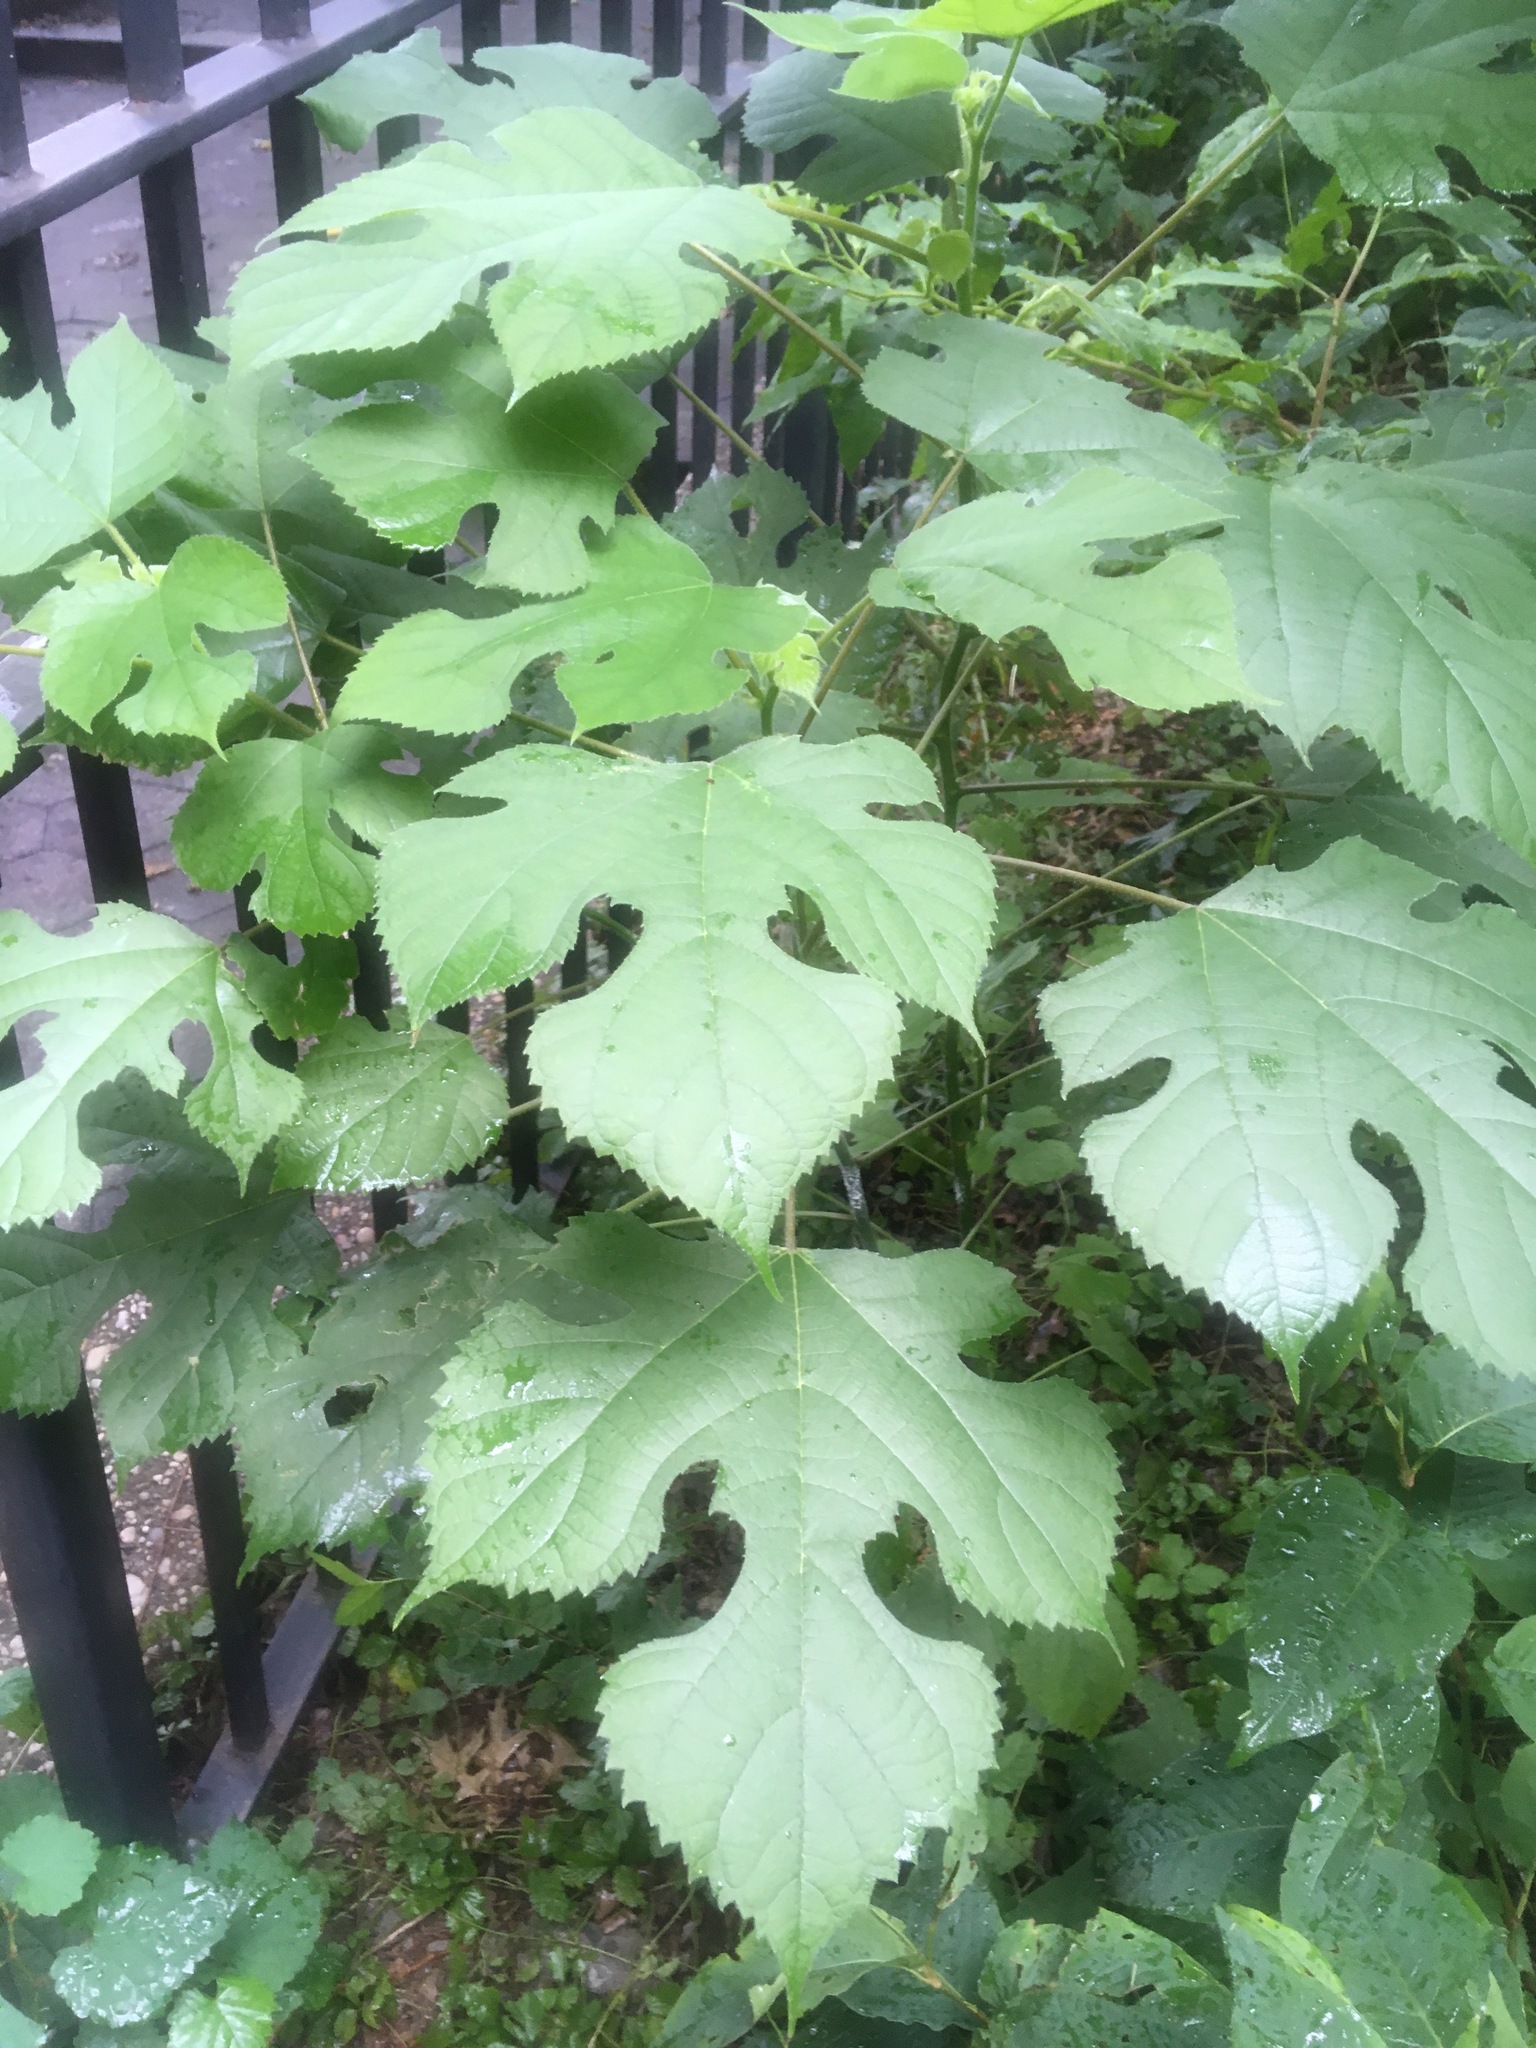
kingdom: Plantae
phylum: Tracheophyta
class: Magnoliopsida
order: Rosales
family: Moraceae
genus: Broussonetia
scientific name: Broussonetia papyrifera
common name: Paper mulberry
